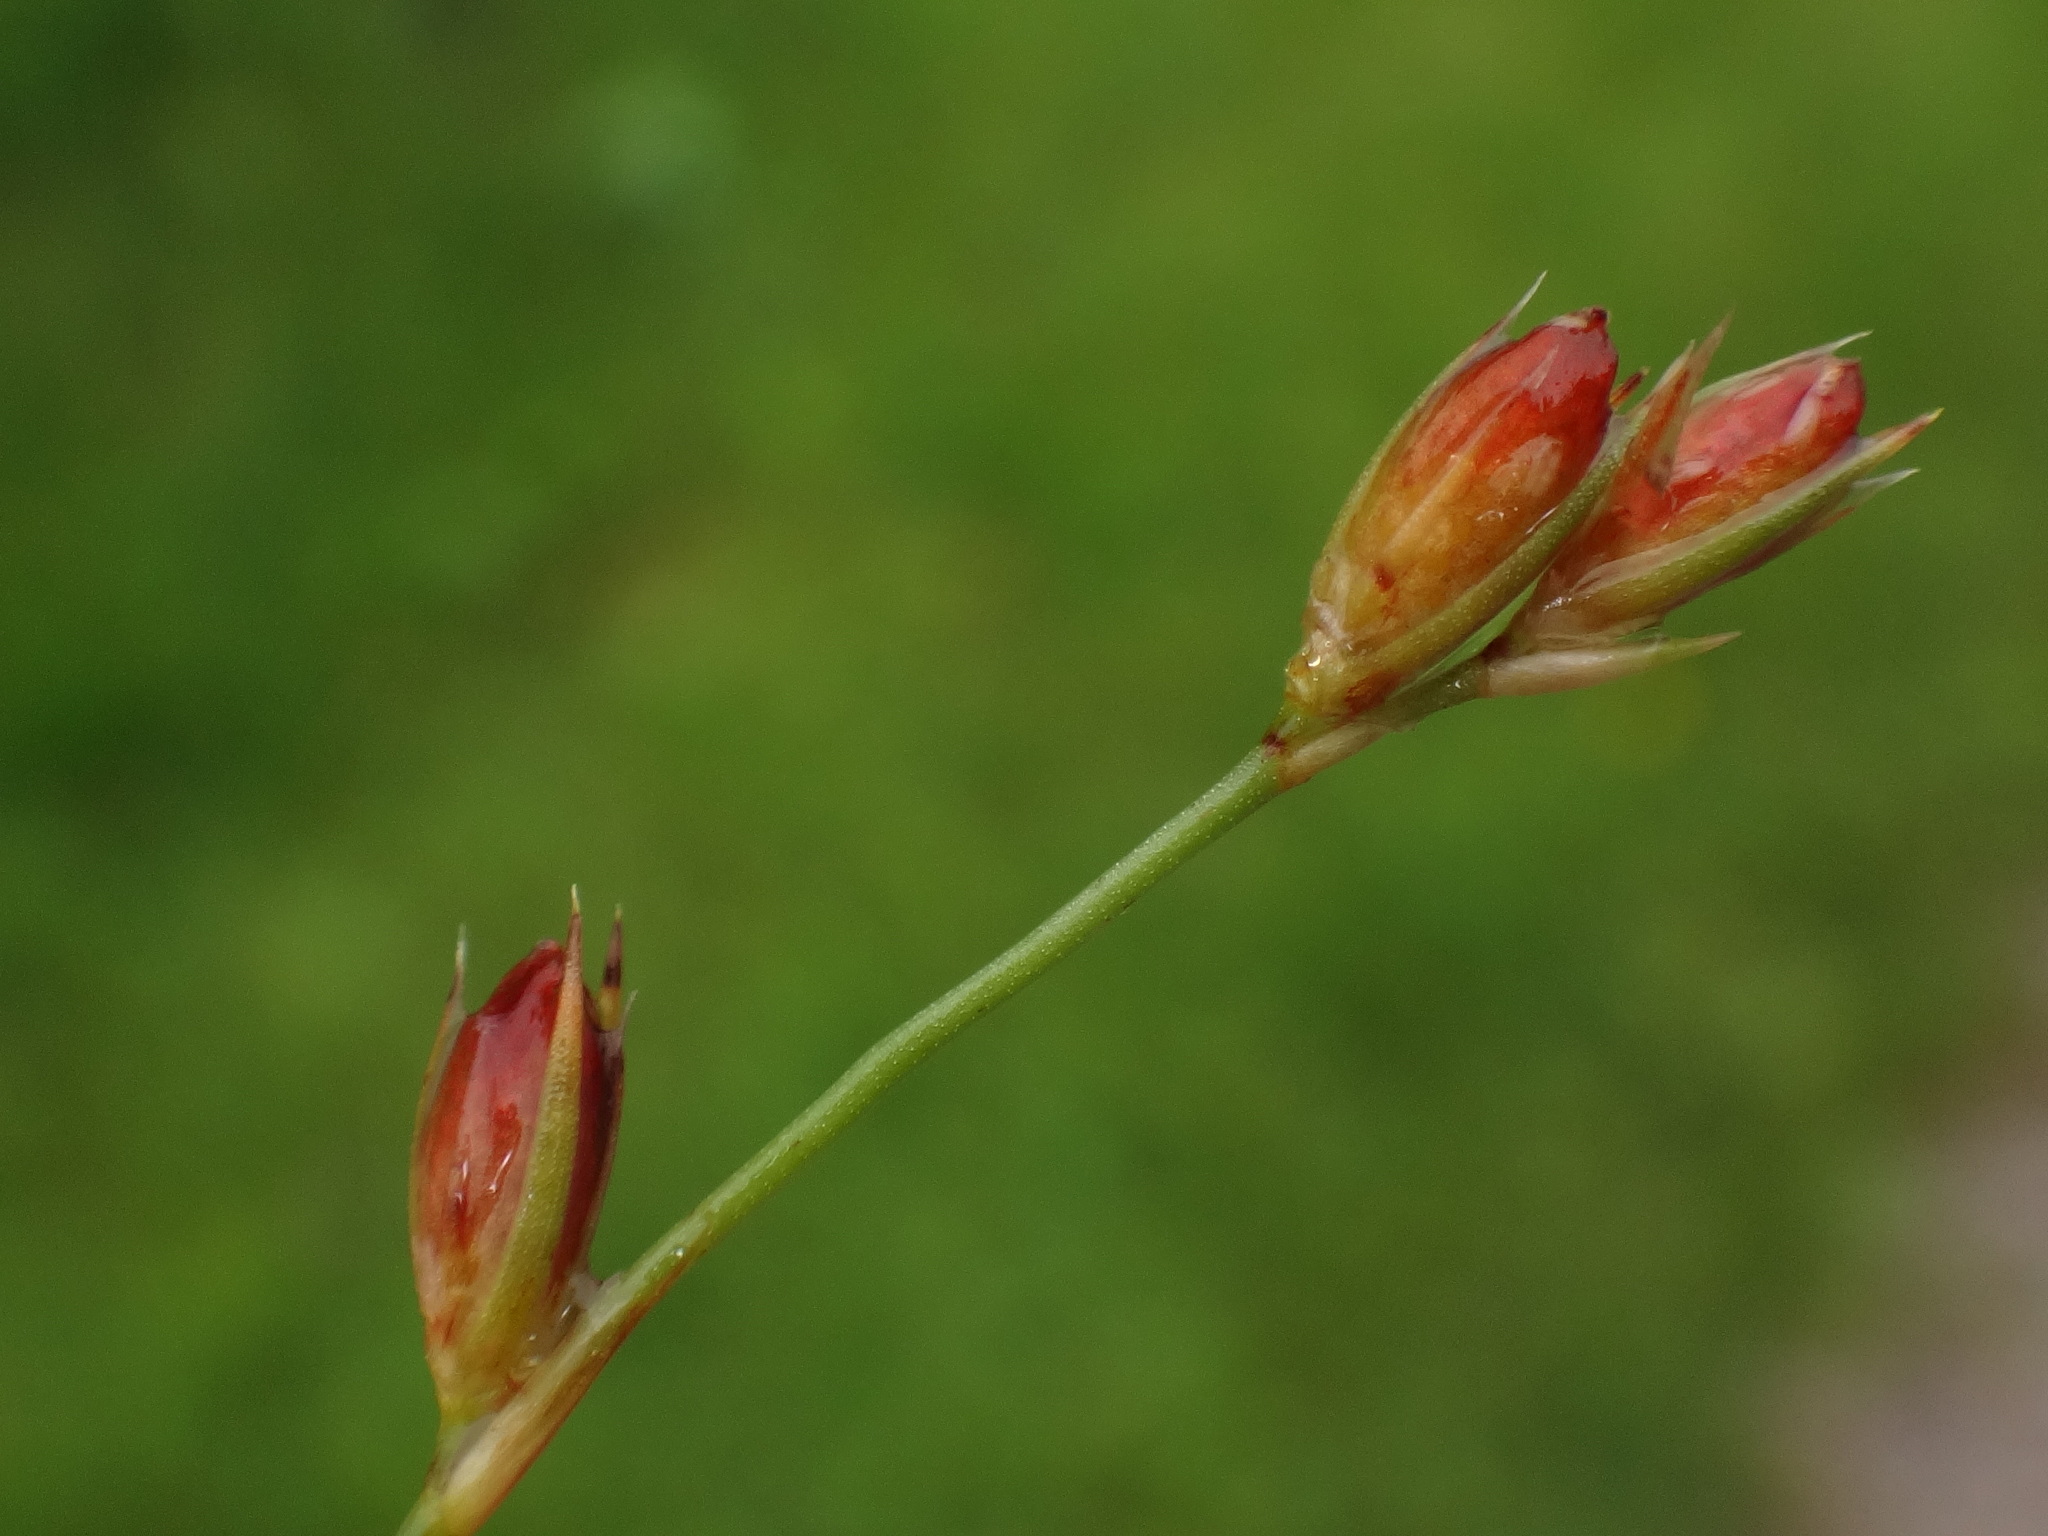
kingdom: Plantae
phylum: Tracheophyta
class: Liliopsida
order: Poales
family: Juncaceae
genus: Juncus
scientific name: Juncus bufonius
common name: Toad rush
